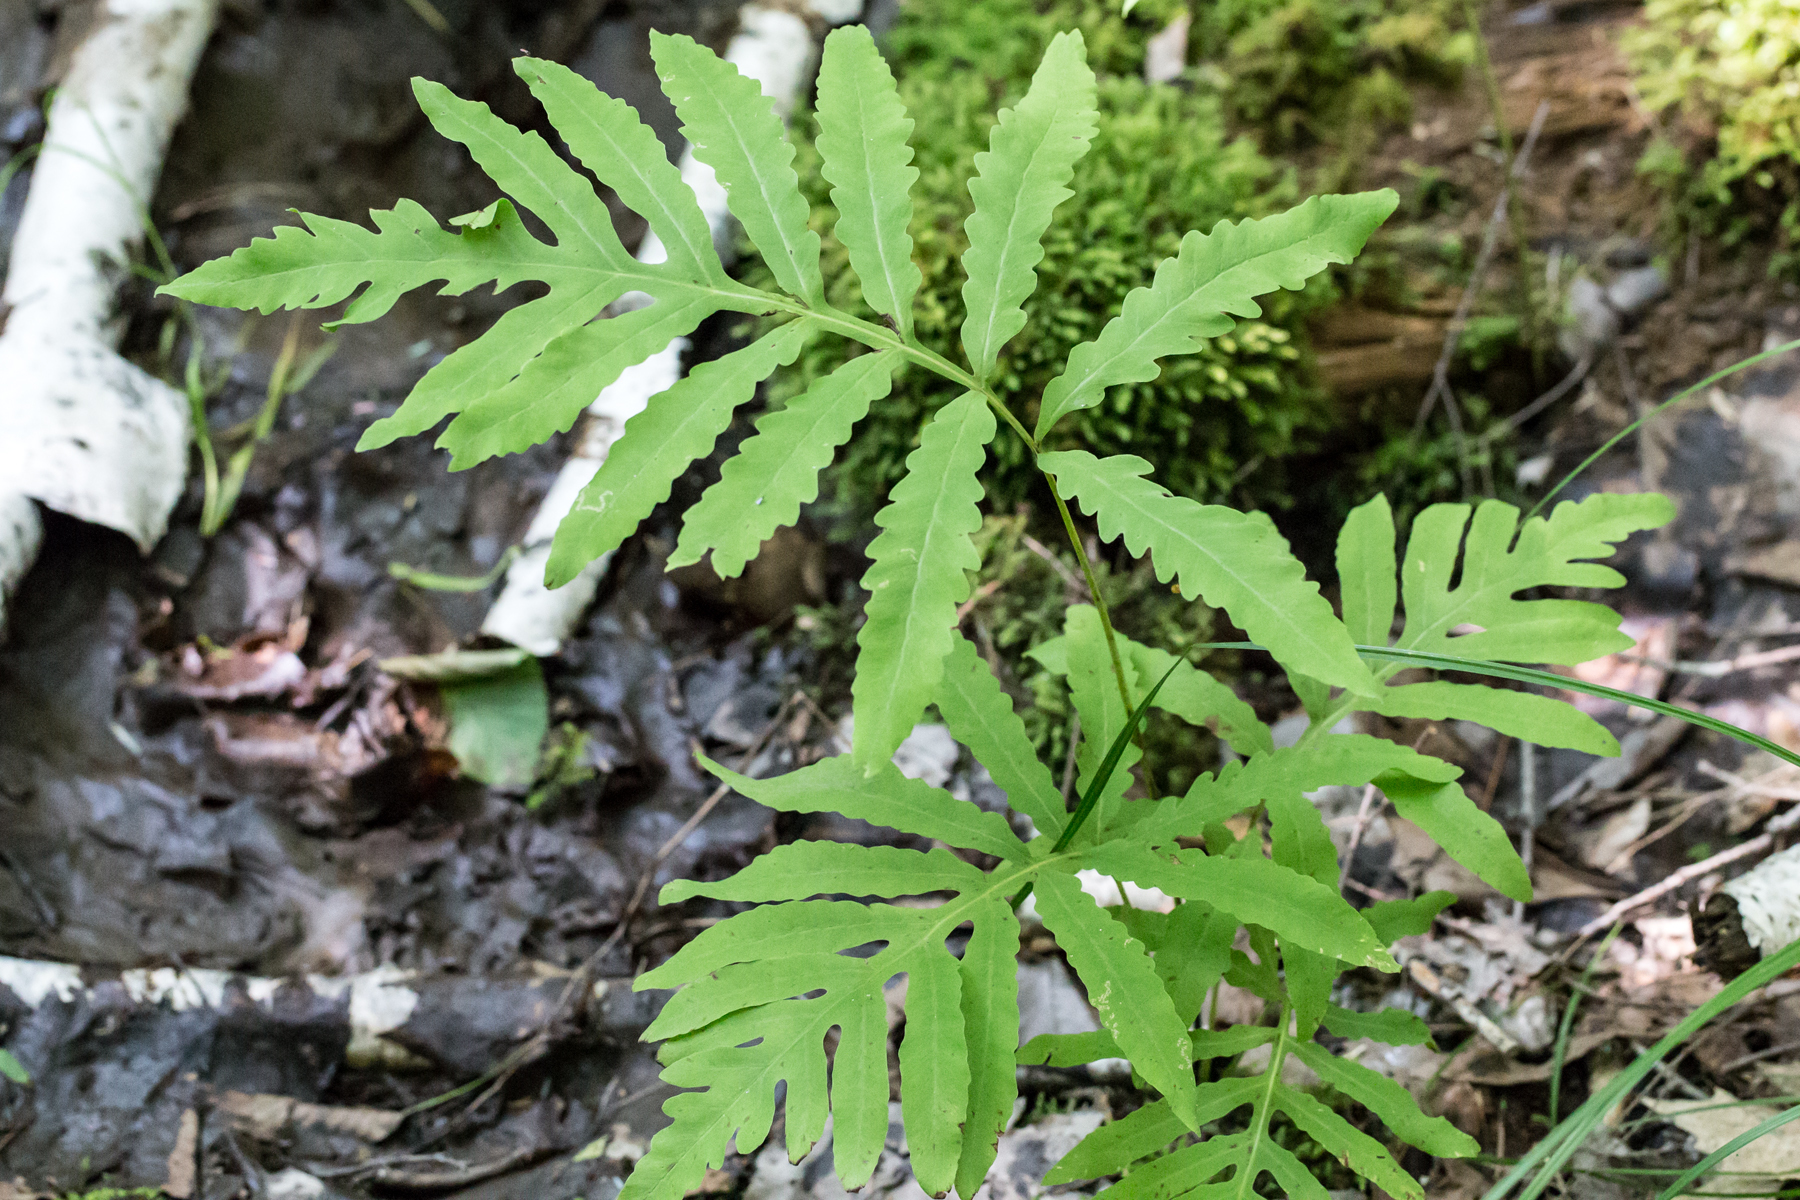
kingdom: Plantae
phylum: Tracheophyta
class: Polypodiopsida
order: Polypodiales
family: Onocleaceae
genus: Onoclea
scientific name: Onoclea sensibilis
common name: Sensitive fern
